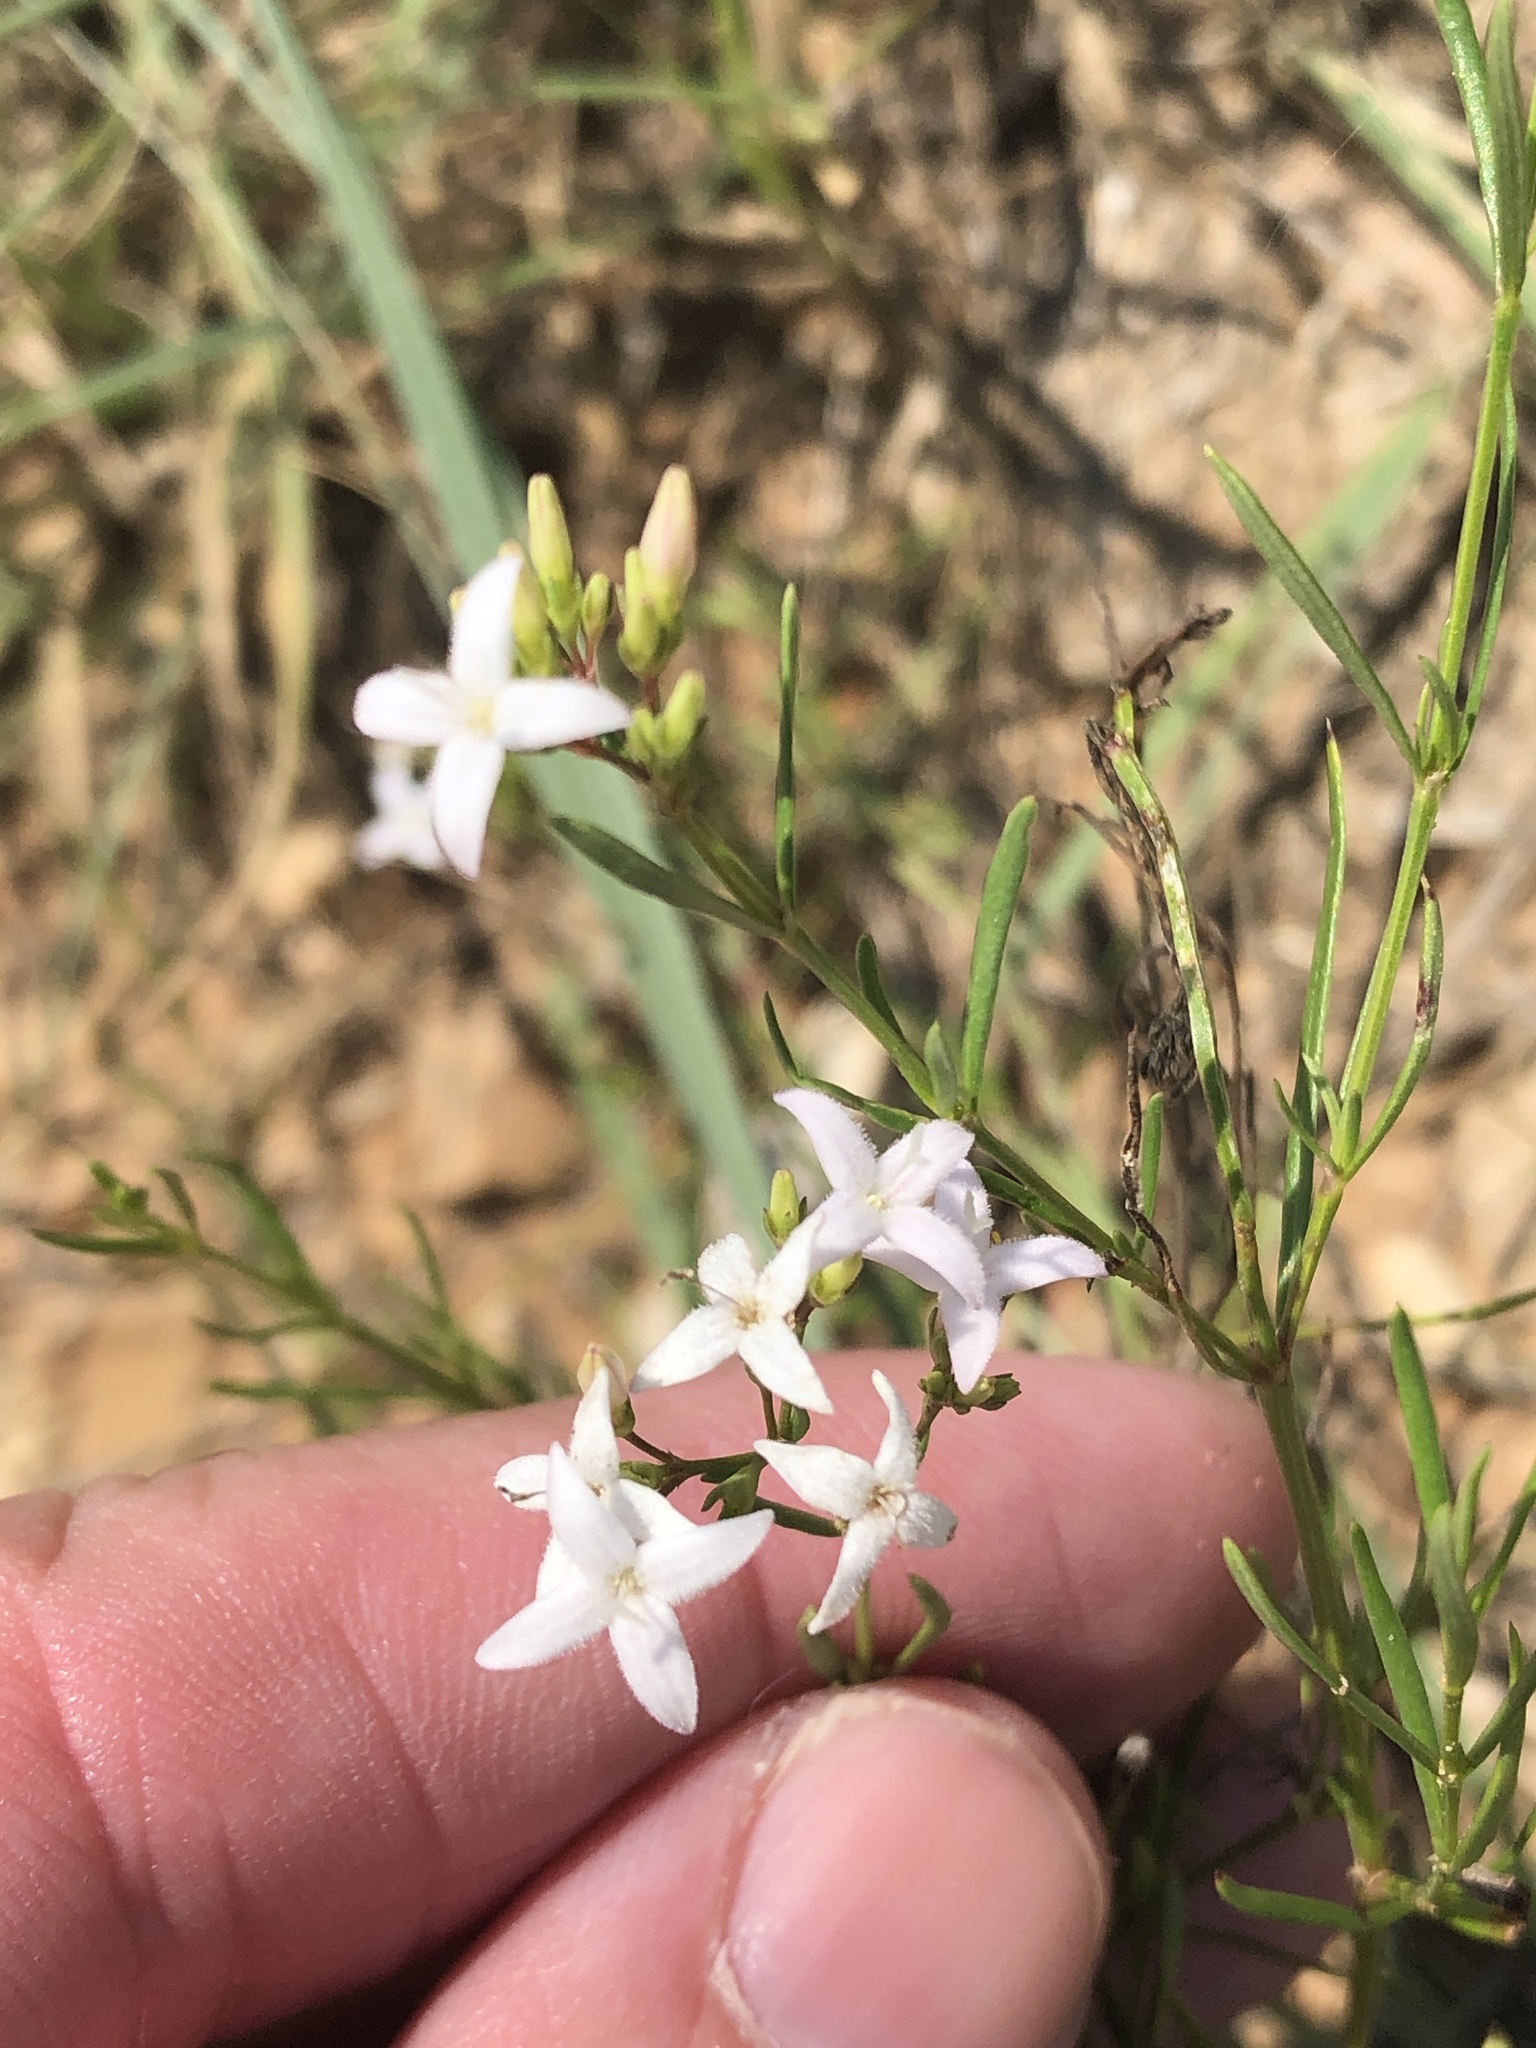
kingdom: Plantae
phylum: Tracheophyta
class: Magnoliopsida
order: Gentianales
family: Rubiaceae
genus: Stenaria
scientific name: Stenaria nigricans
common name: Diamondflowers
